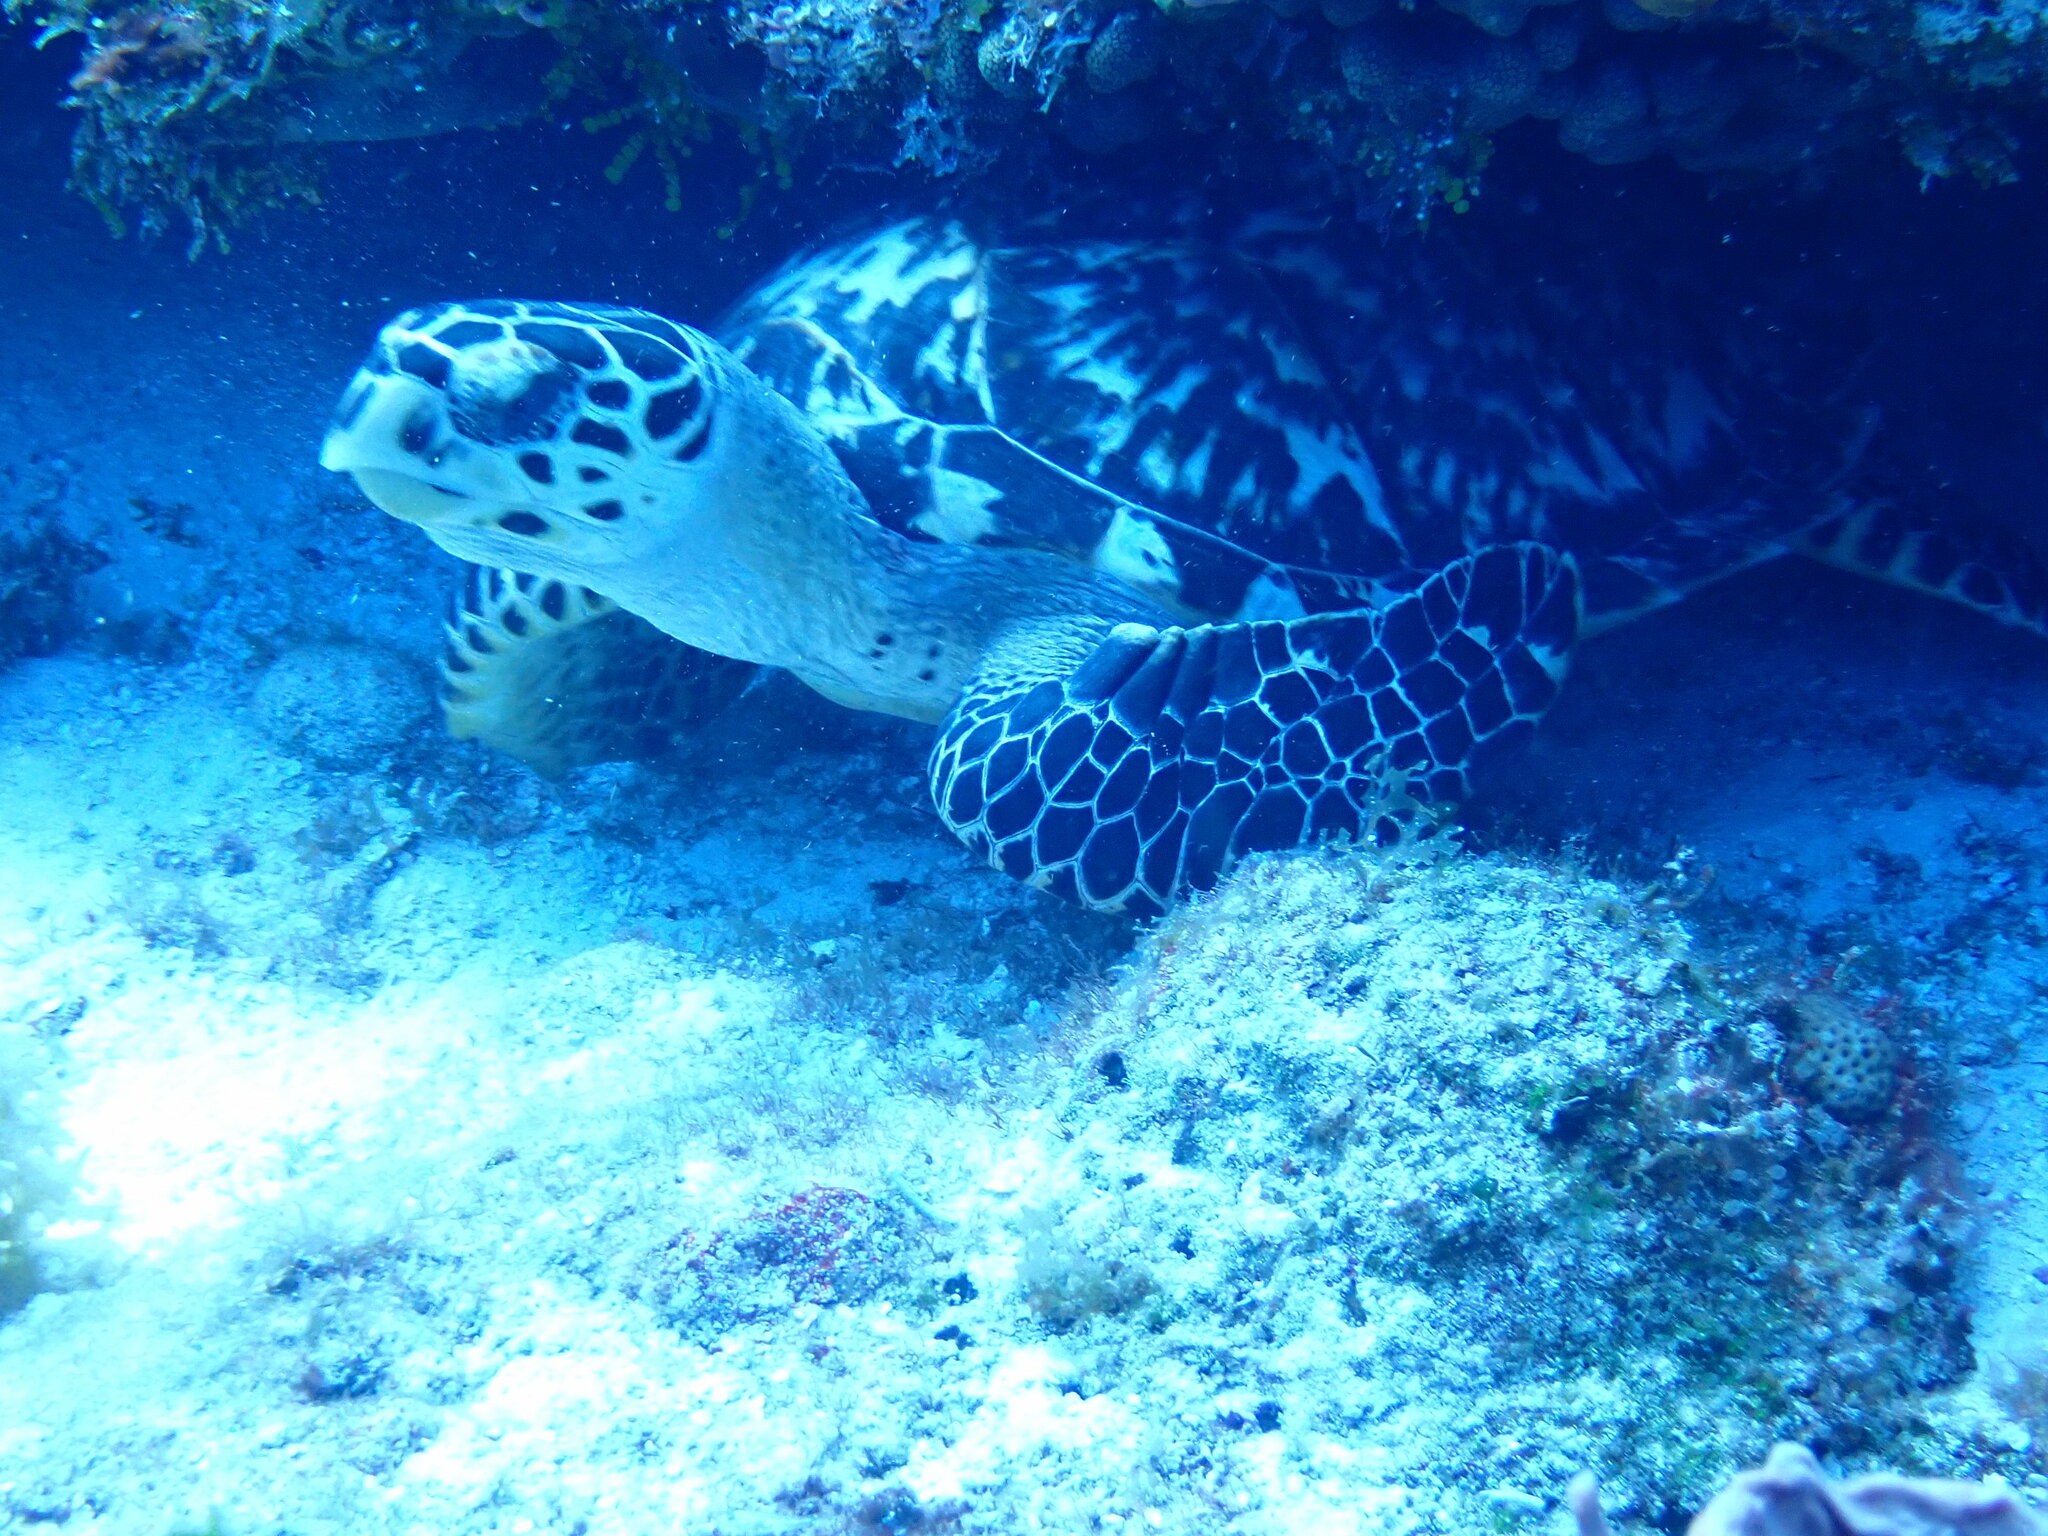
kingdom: Animalia
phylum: Chordata
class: Testudines
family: Cheloniidae
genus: Eretmochelys
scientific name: Eretmochelys imbricata
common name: Hawksbill turtle
